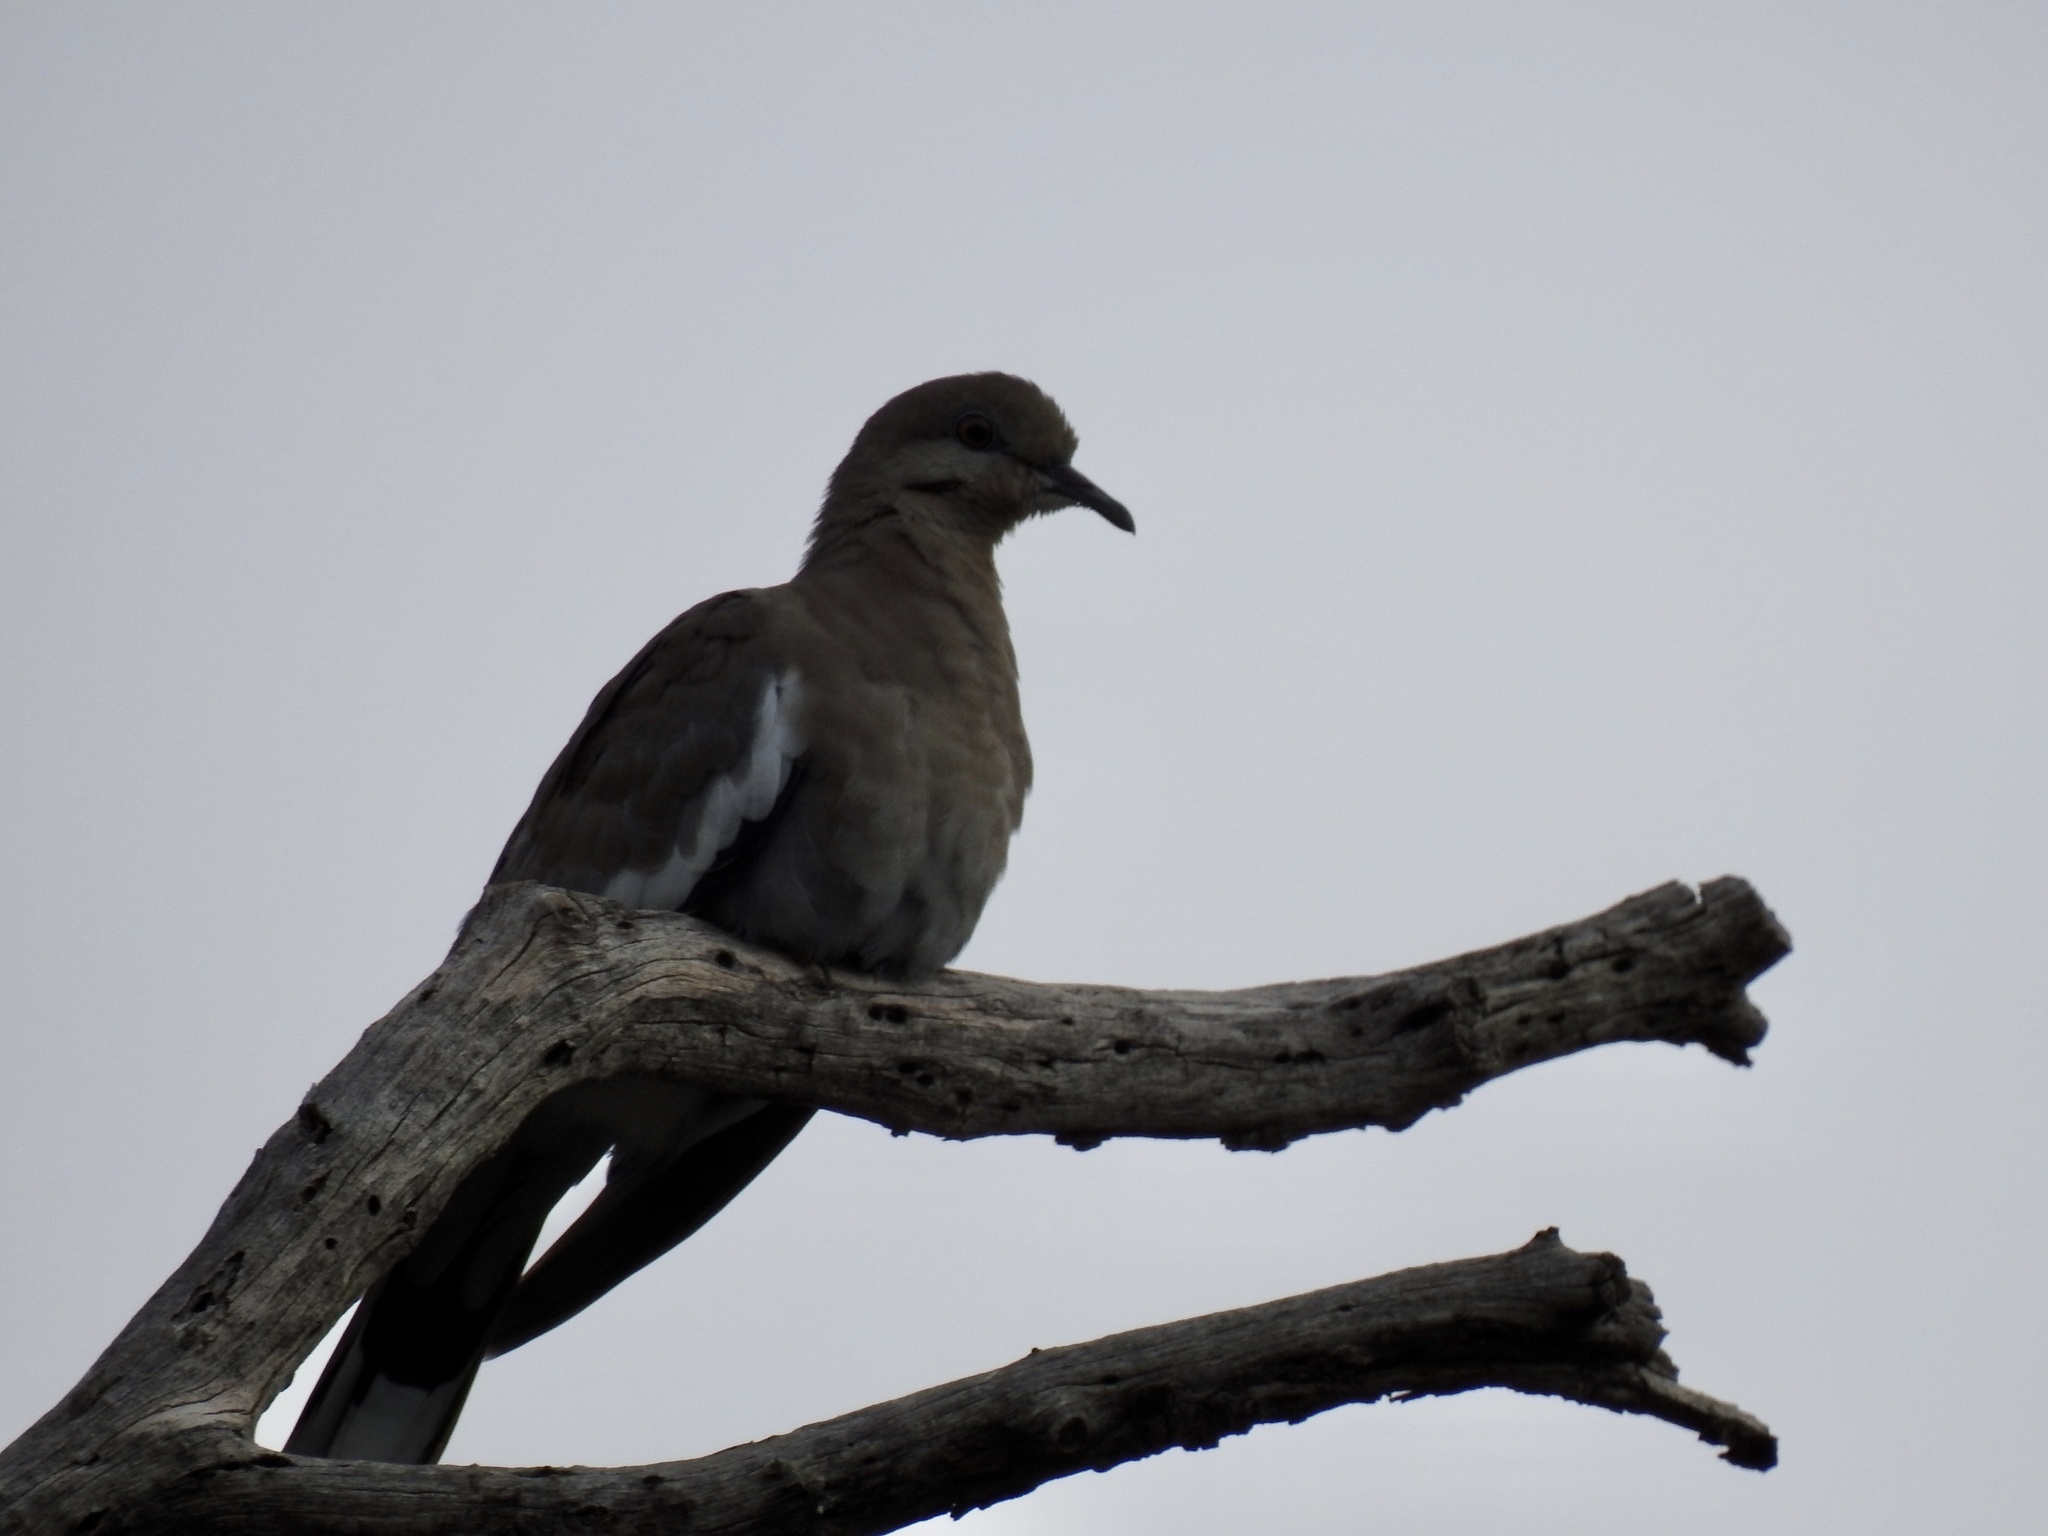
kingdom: Animalia
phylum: Chordata
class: Aves
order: Columbiformes
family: Columbidae
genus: Zenaida
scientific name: Zenaida asiatica
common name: White-winged dove
